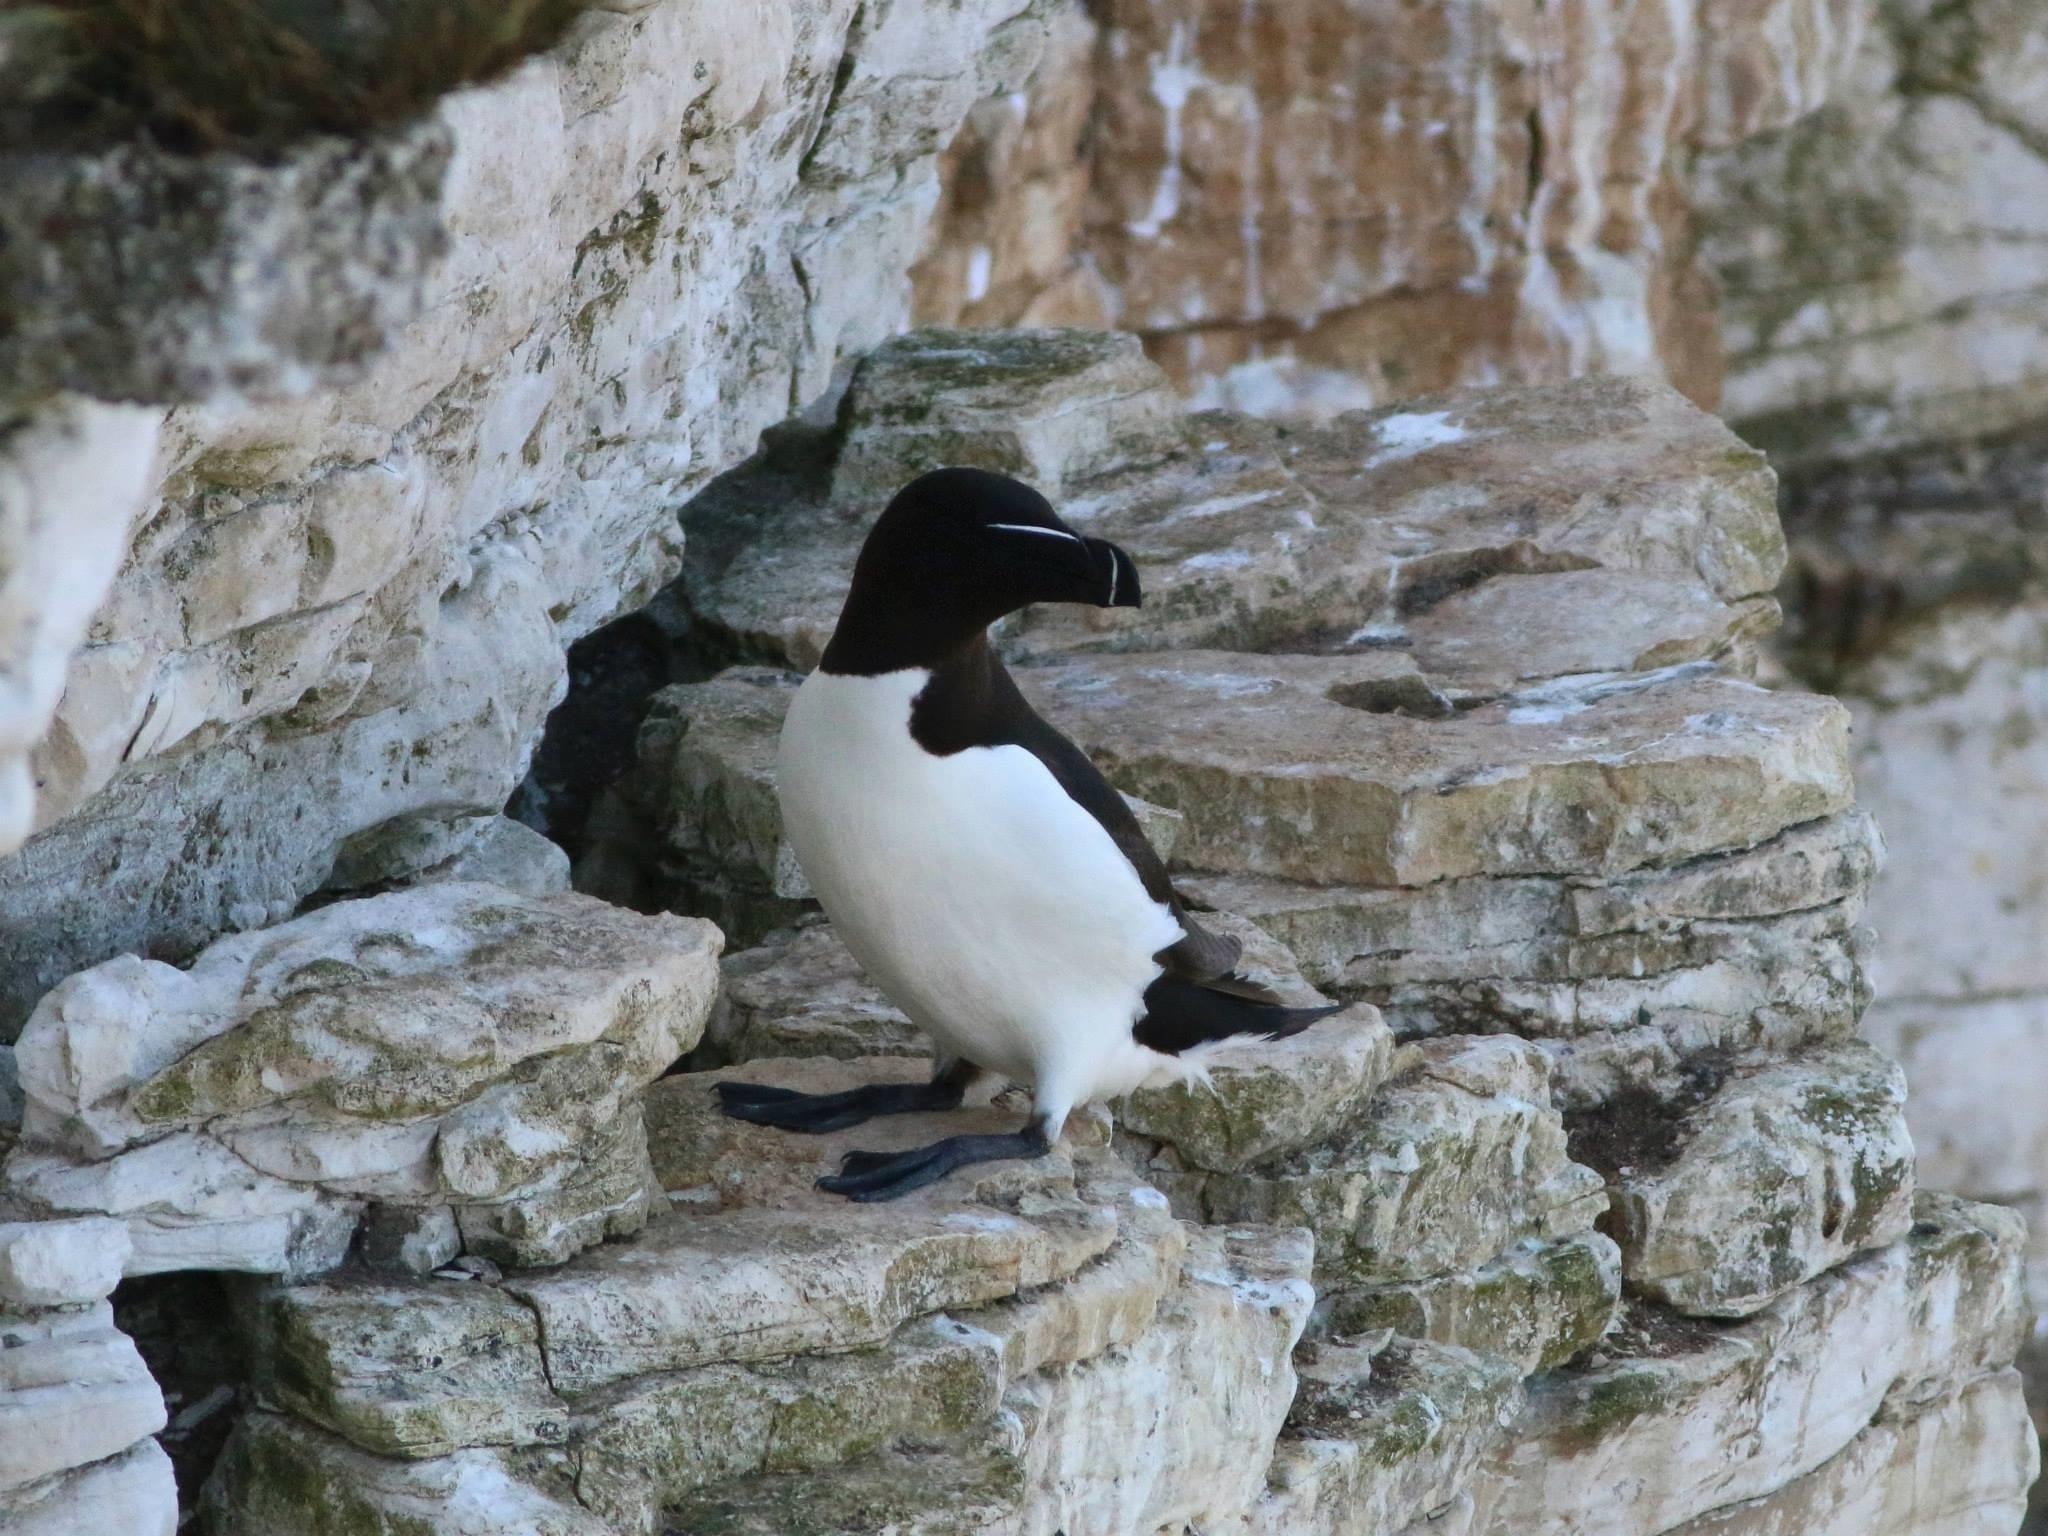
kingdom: Animalia
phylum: Chordata
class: Aves
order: Charadriiformes
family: Alcidae
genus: Alca
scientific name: Alca torda
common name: Razorbill
